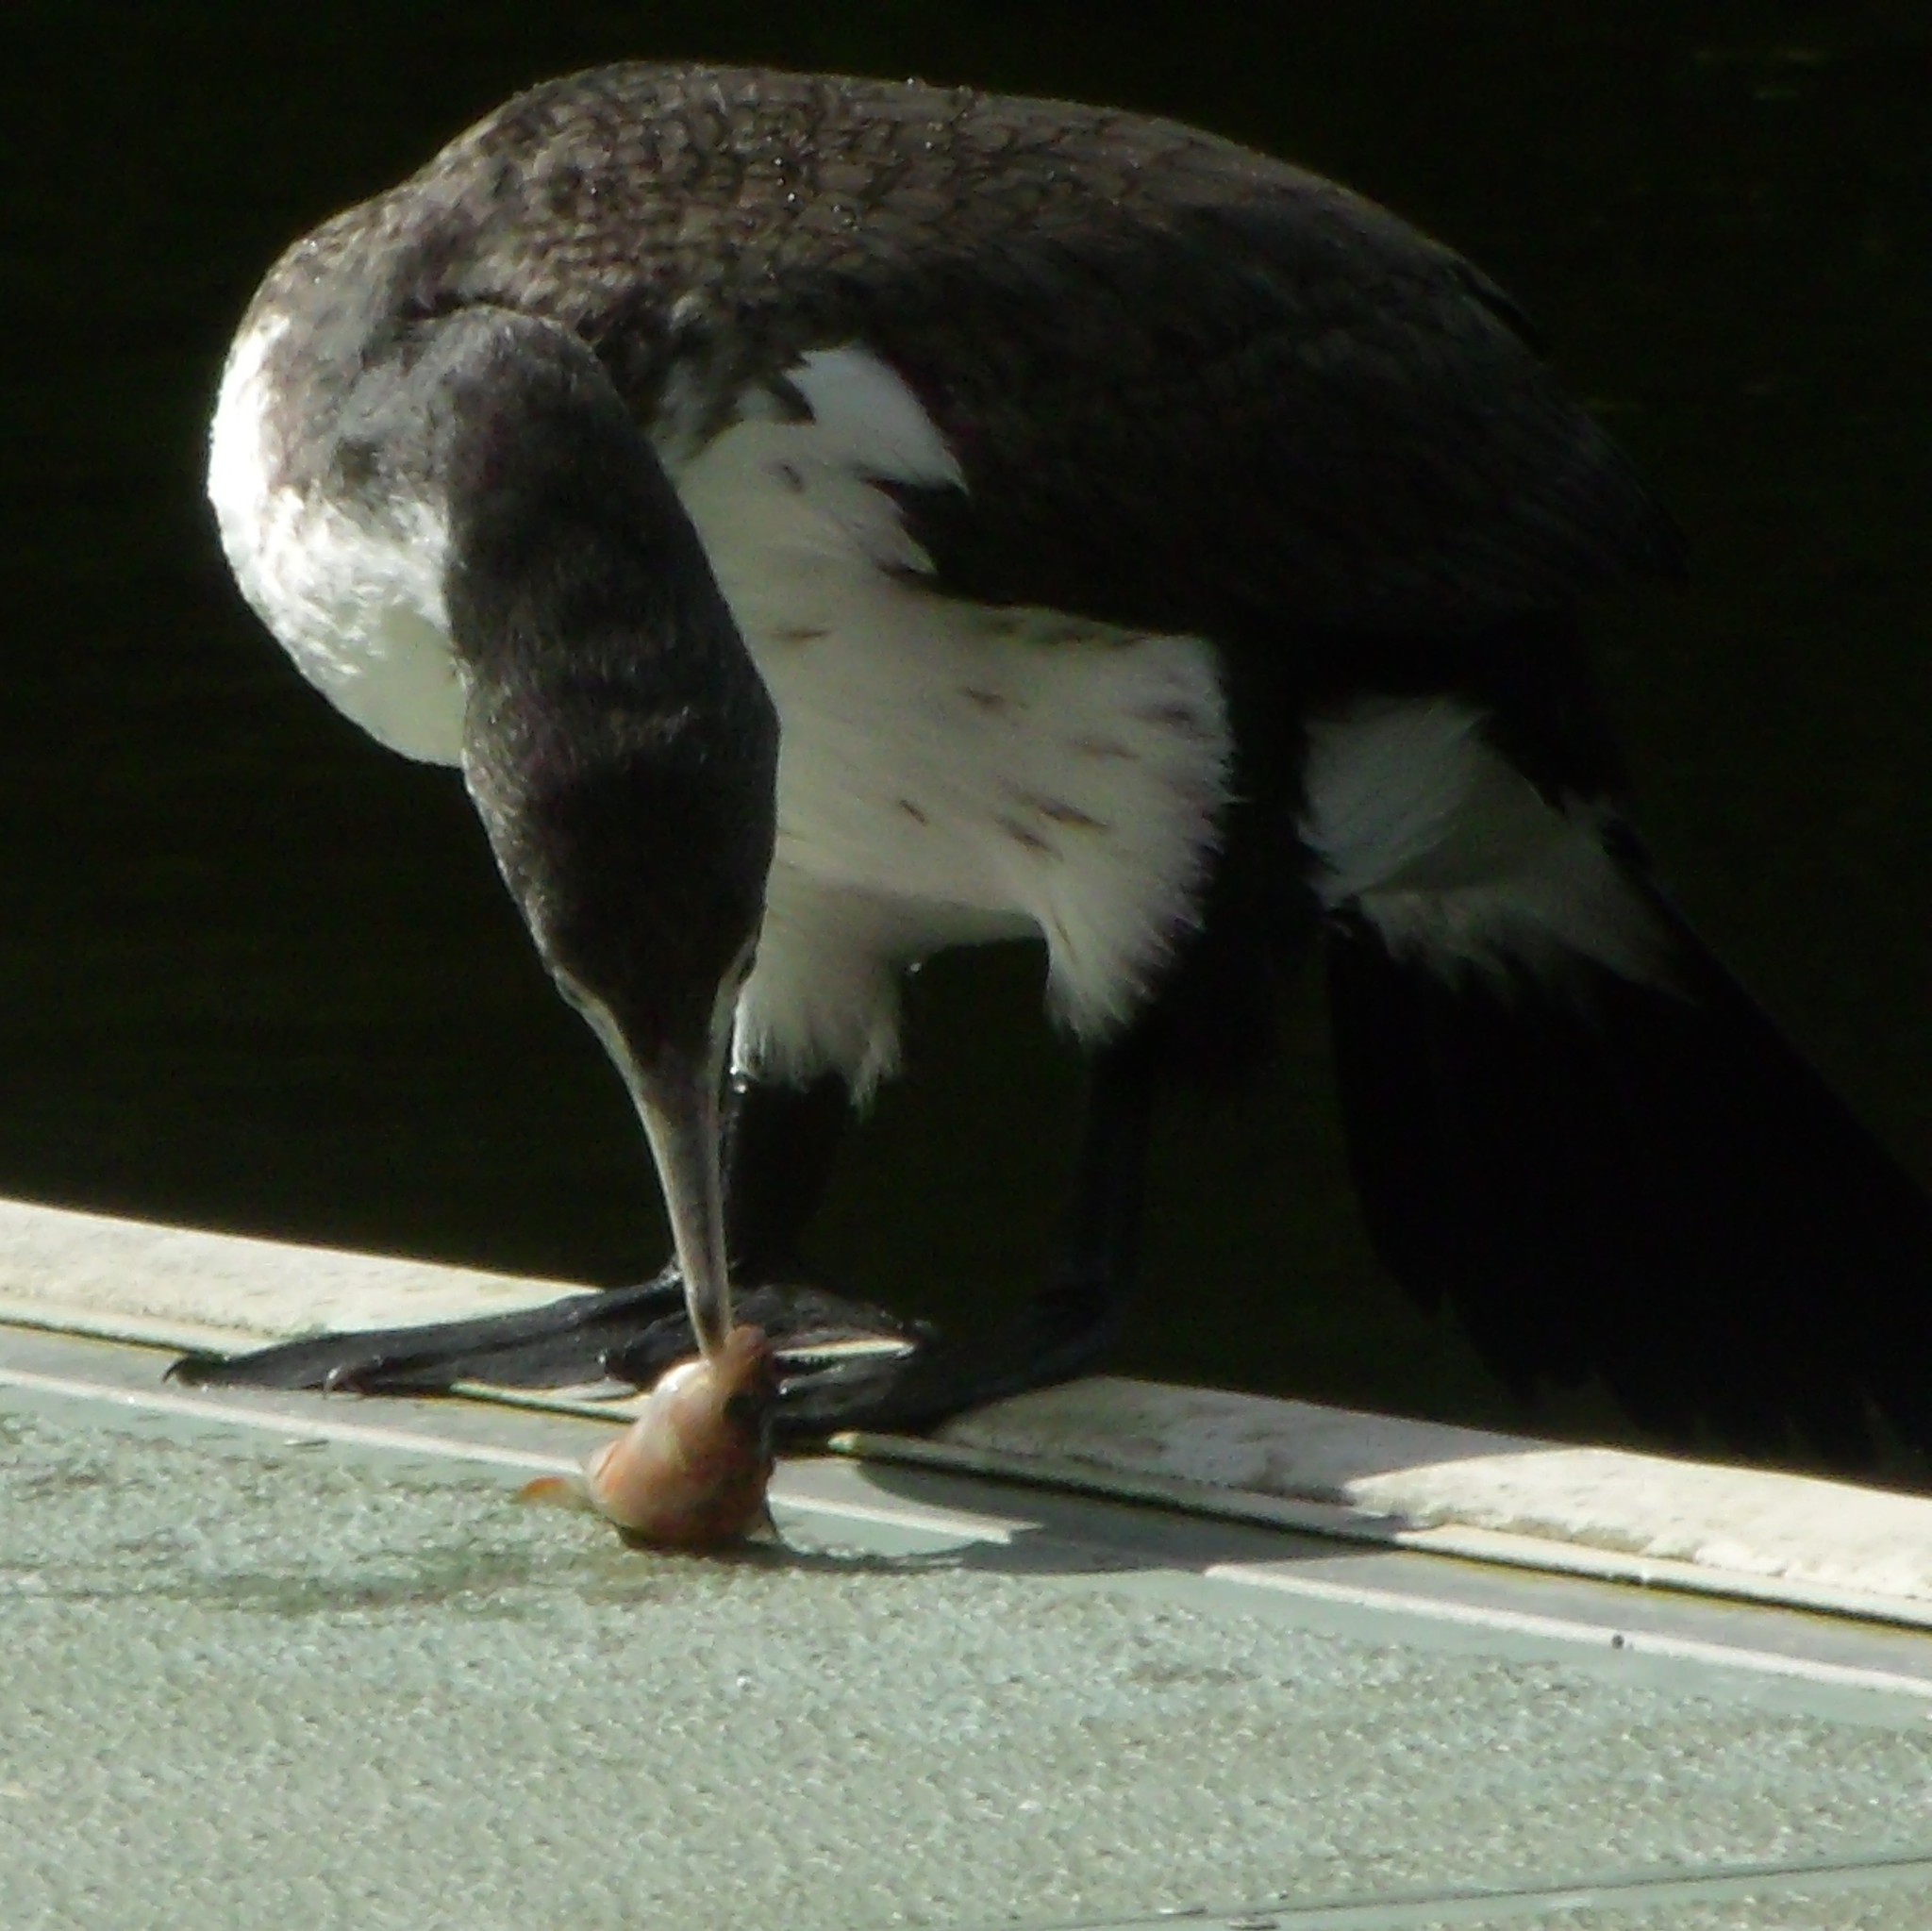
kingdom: Animalia
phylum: Chordata
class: Aves
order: Suliformes
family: Phalacrocoracidae
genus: Phalacrocorax
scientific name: Phalacrocorax varius
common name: Pied cormorant
